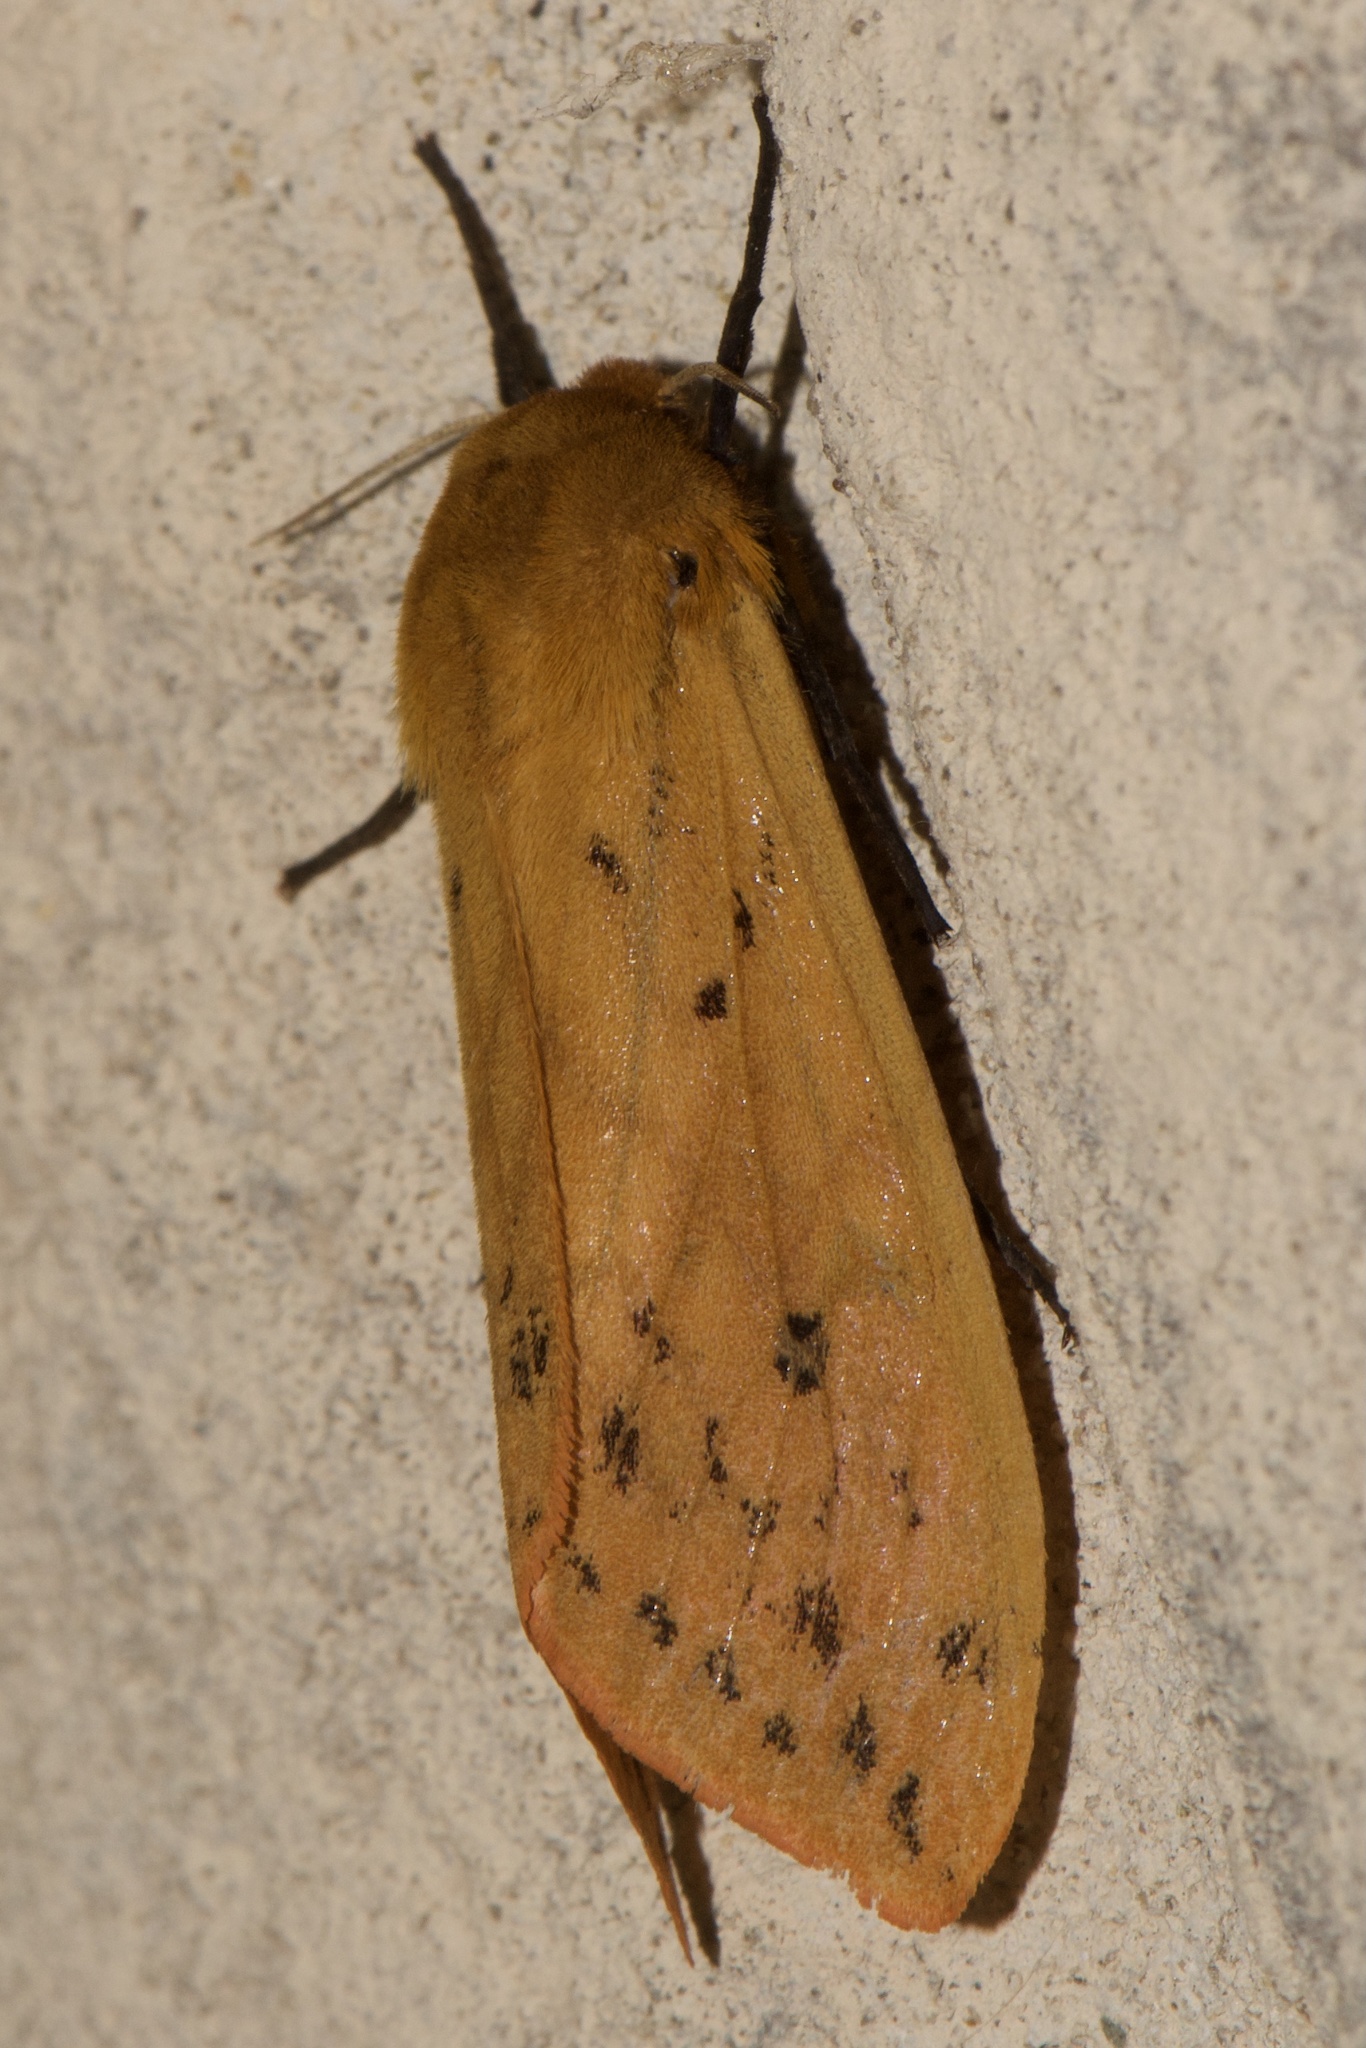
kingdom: Animalia
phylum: Arthropoda
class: Insecta
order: Lepidoptera
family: Erebidae
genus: Pyrrharctia
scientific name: Pyrrharctia isabella
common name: Isabella tiger moth
